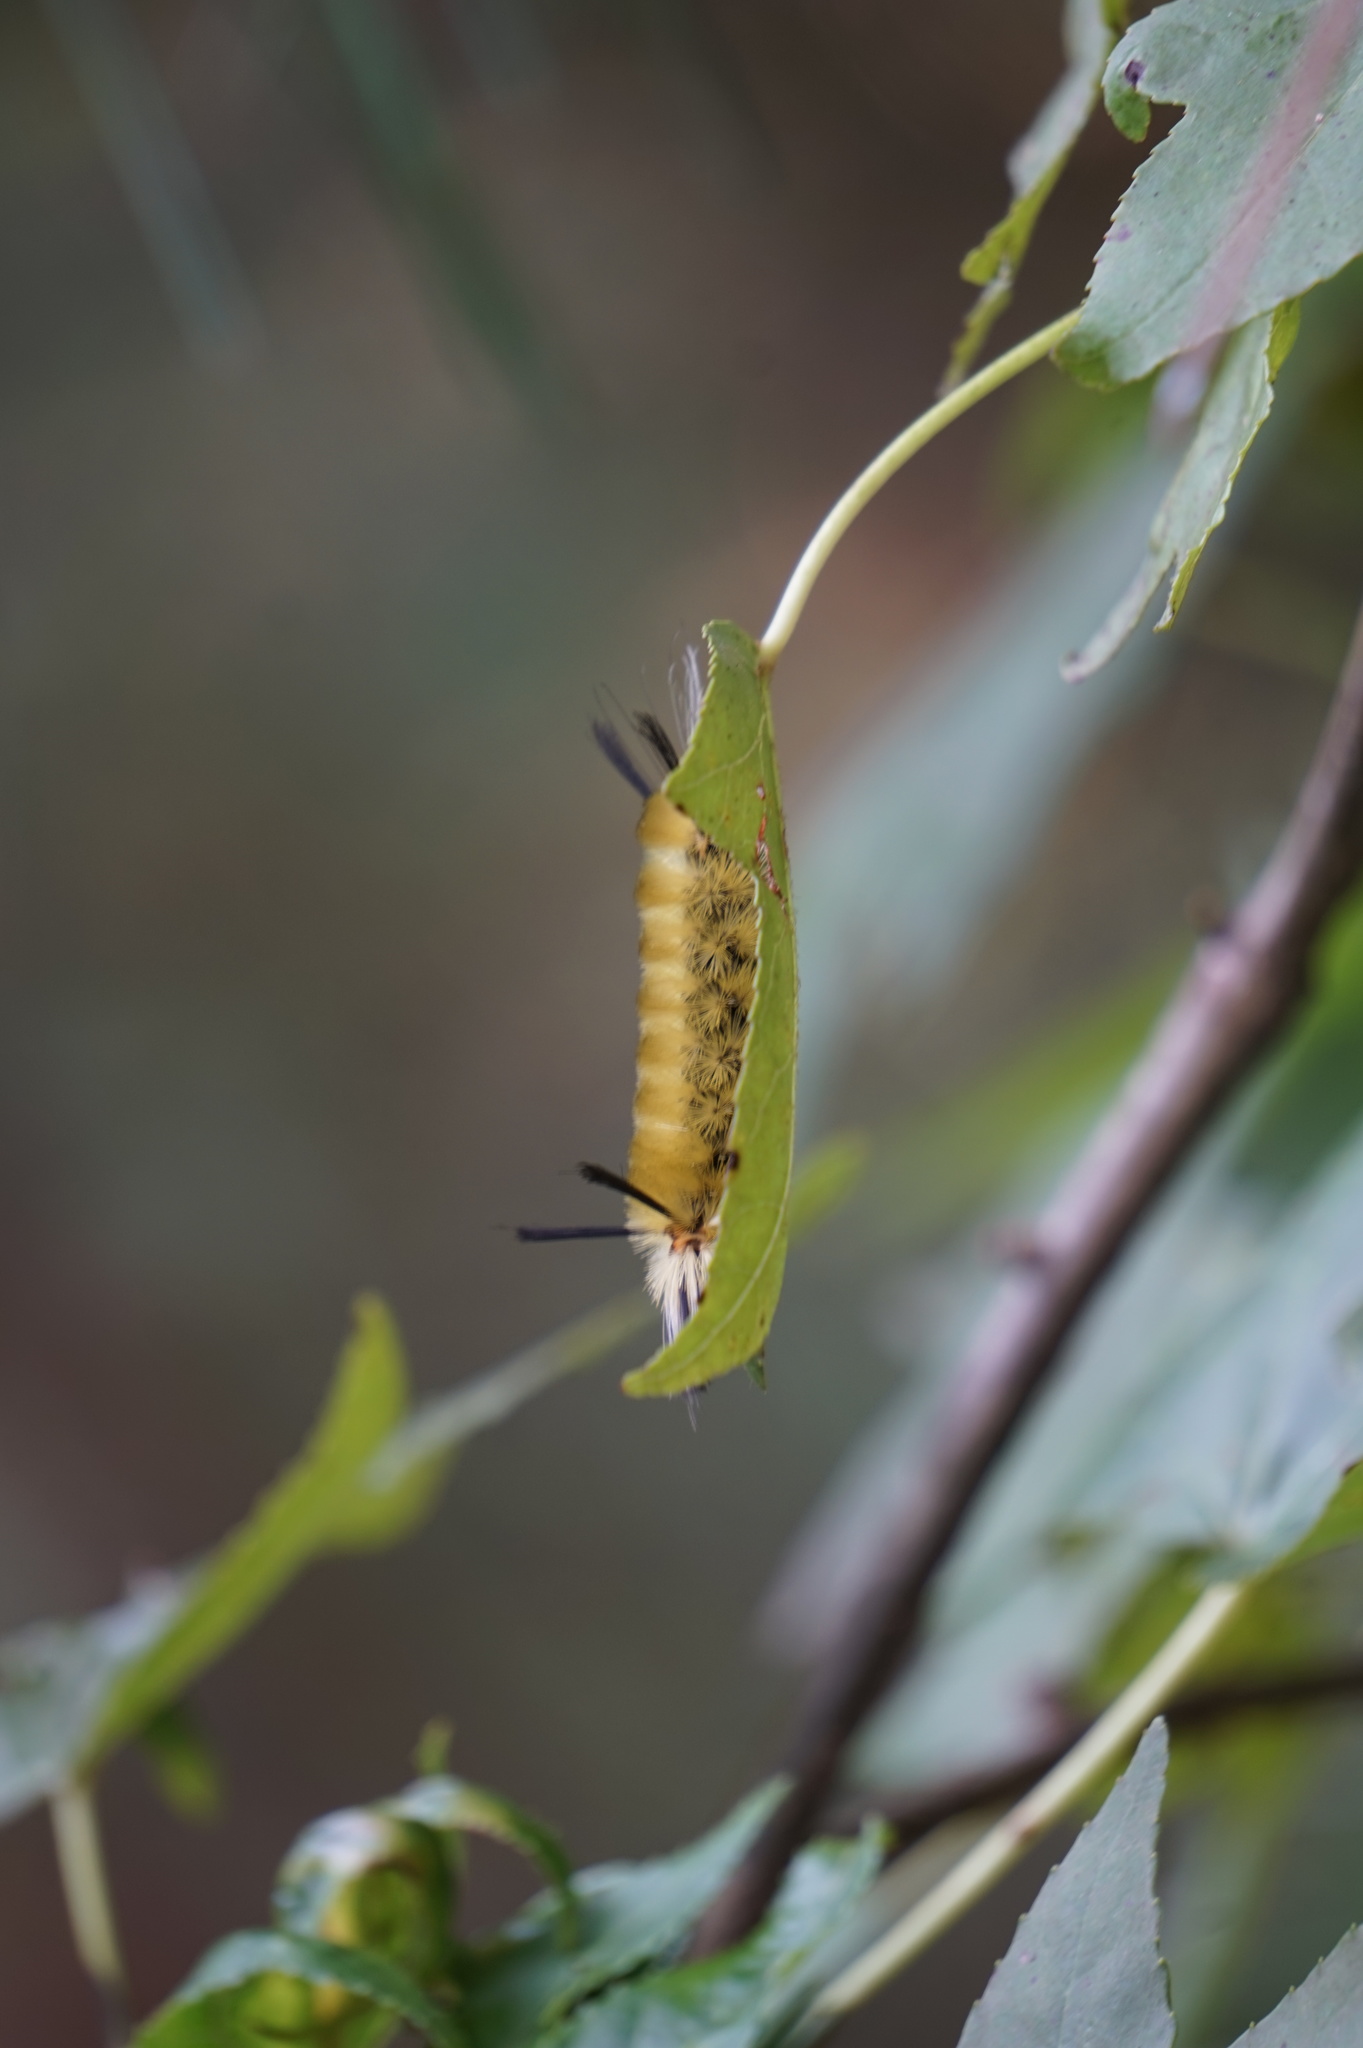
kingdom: Animalia
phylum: Arthropoda
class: Insecta
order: Lepidoptera
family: Erebidae
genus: Halysidota
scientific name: Halysidota tessellaris
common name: Banded tussock moth
